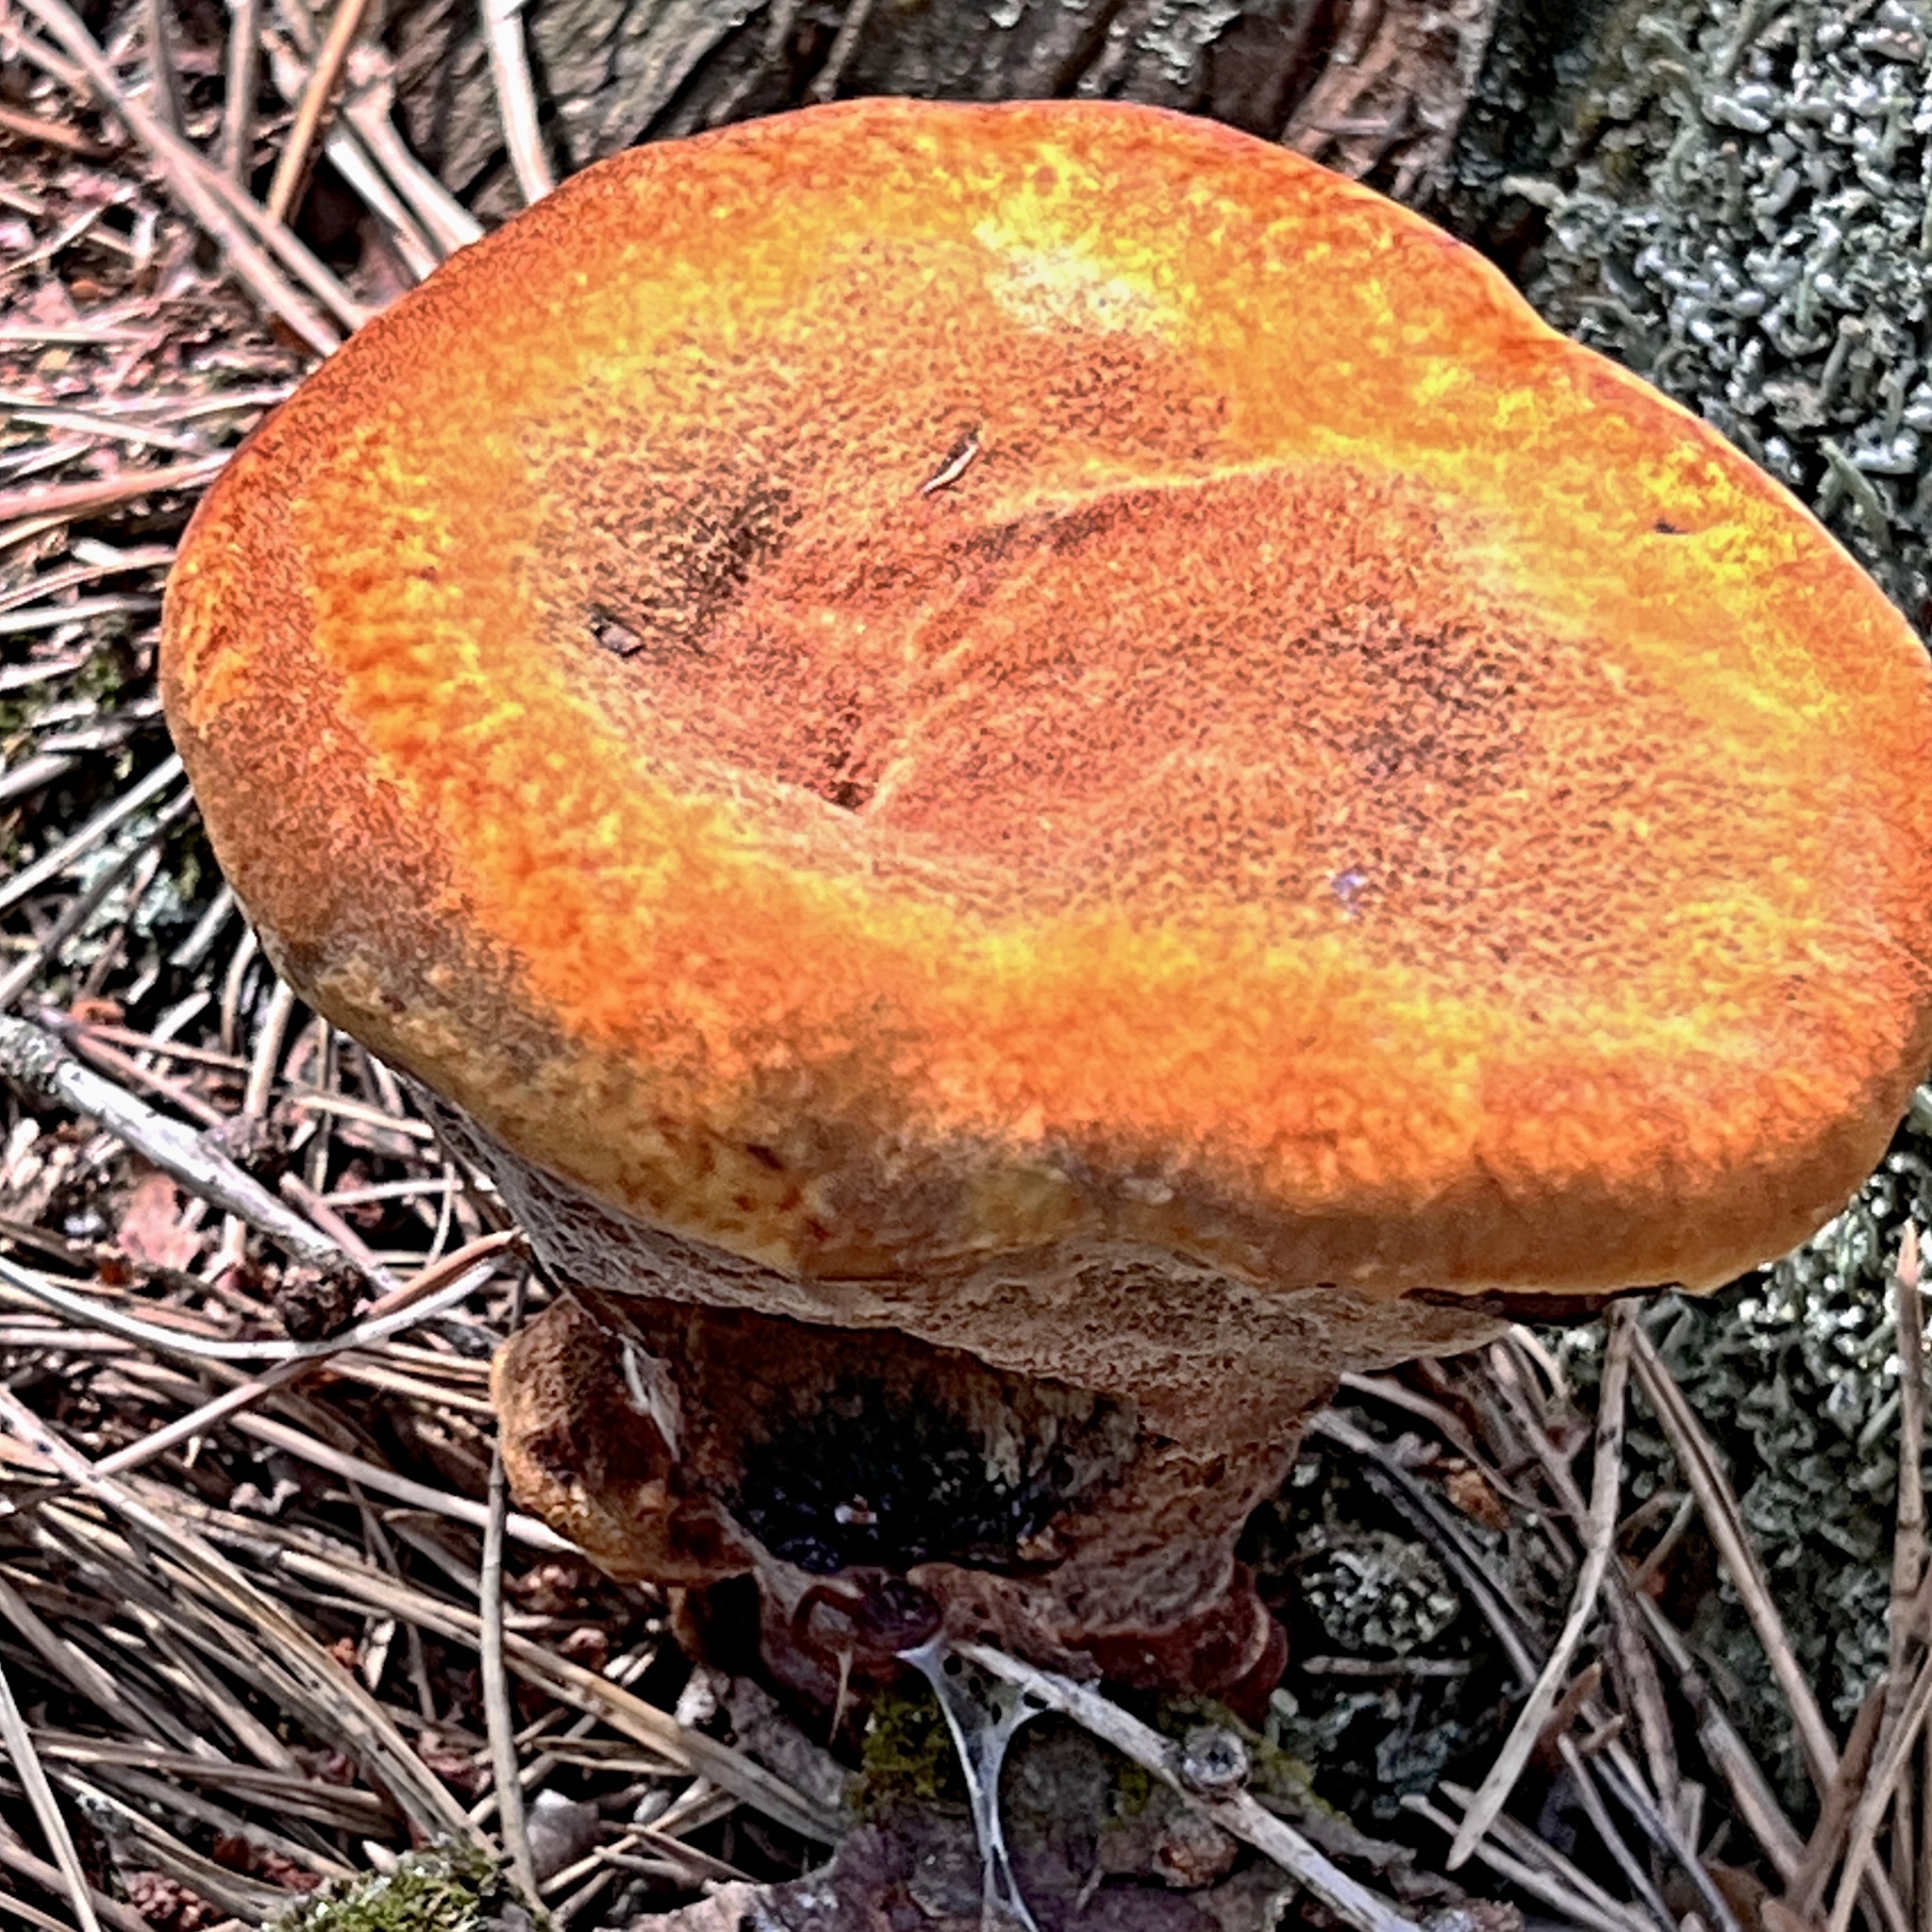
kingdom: Fungi
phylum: Basidiomycota
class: Agaricomycetes
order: Polyporales
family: Laetiporaceae
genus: Phaeolus
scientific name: Phaeolus schweinitzii
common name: Dyer's mazegill
